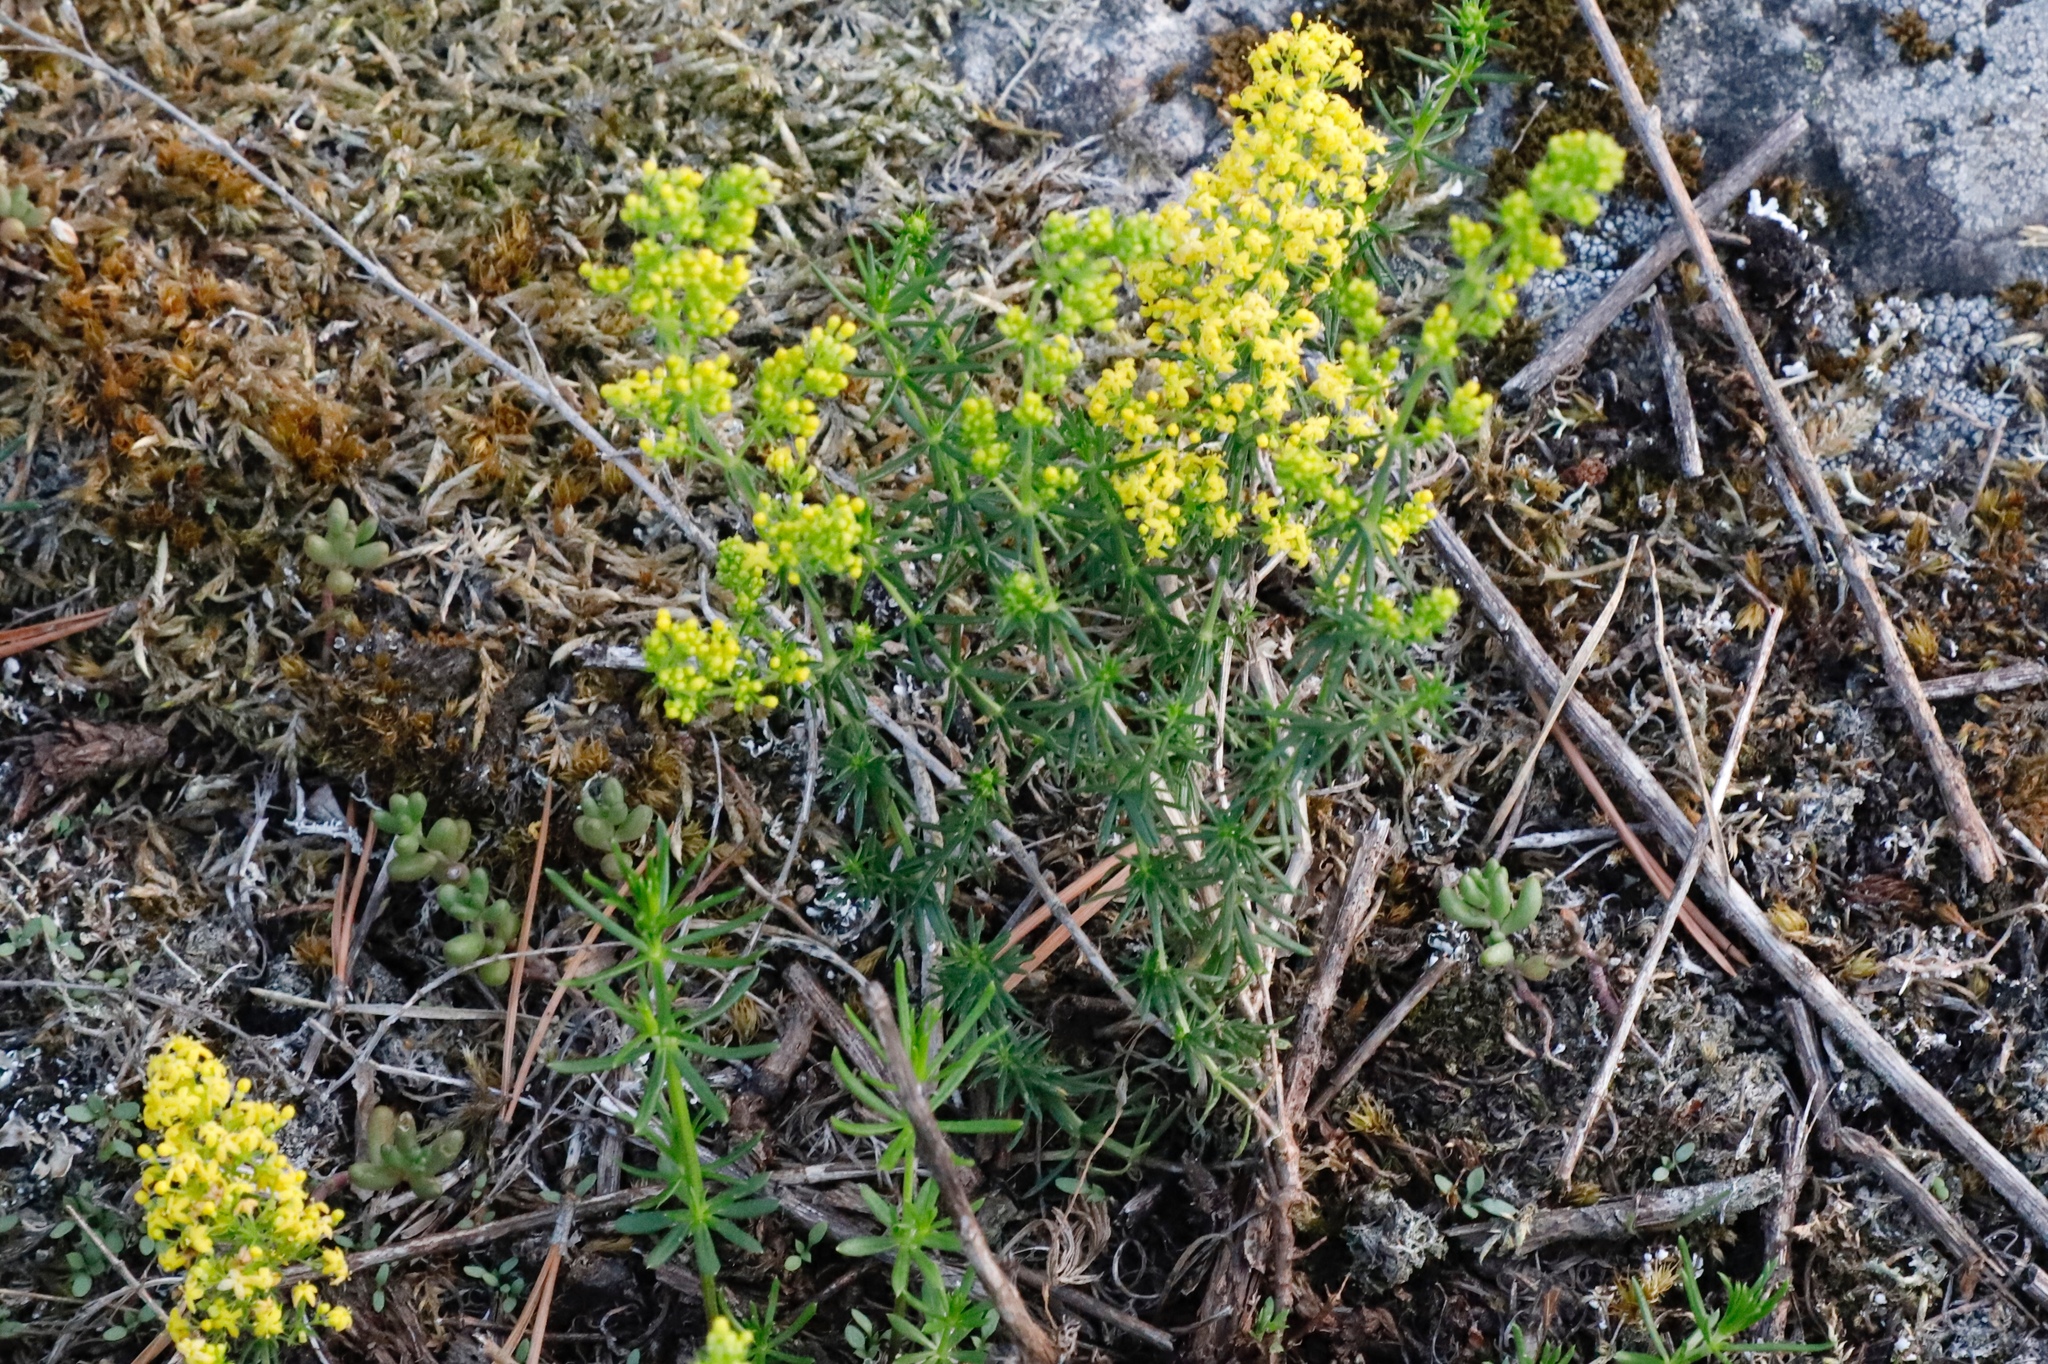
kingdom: Plantae
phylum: Tracheophyta
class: Magnoliopsida
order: Gentianales
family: Rubiaceae
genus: Galium
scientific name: Galium verum
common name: Lady's bedstraw
